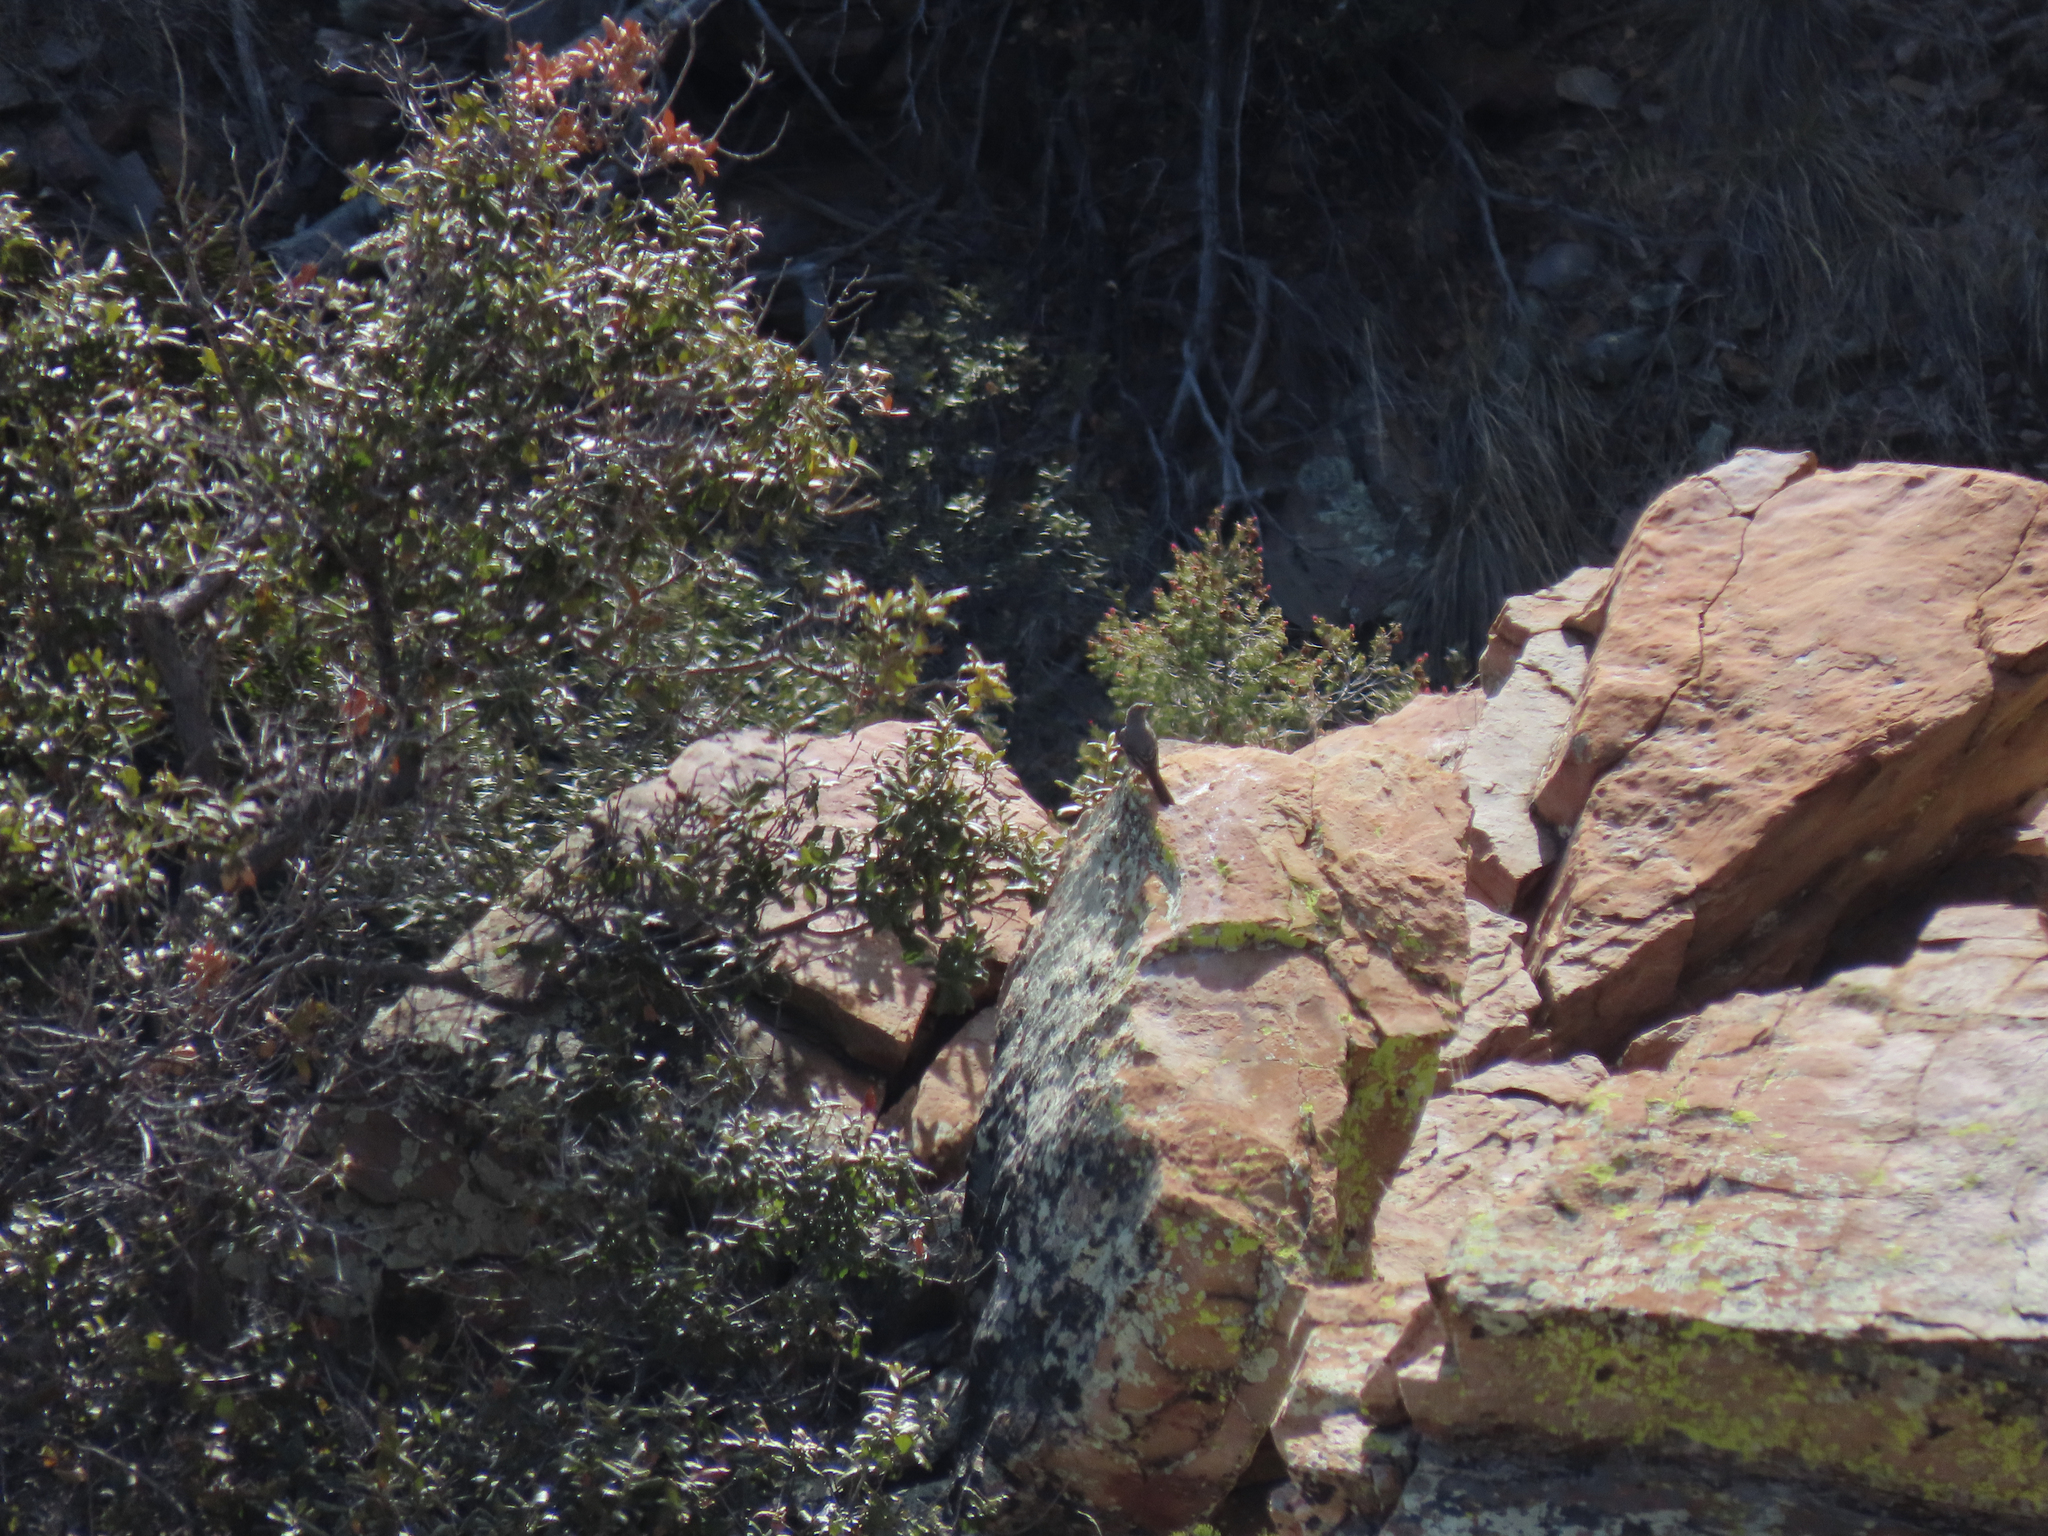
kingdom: Animalia
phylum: Chordata
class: Aves
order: Passeriformes
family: Turdidae
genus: Myadestes
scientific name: Myadestes townsendi
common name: Townsend's solitaire
